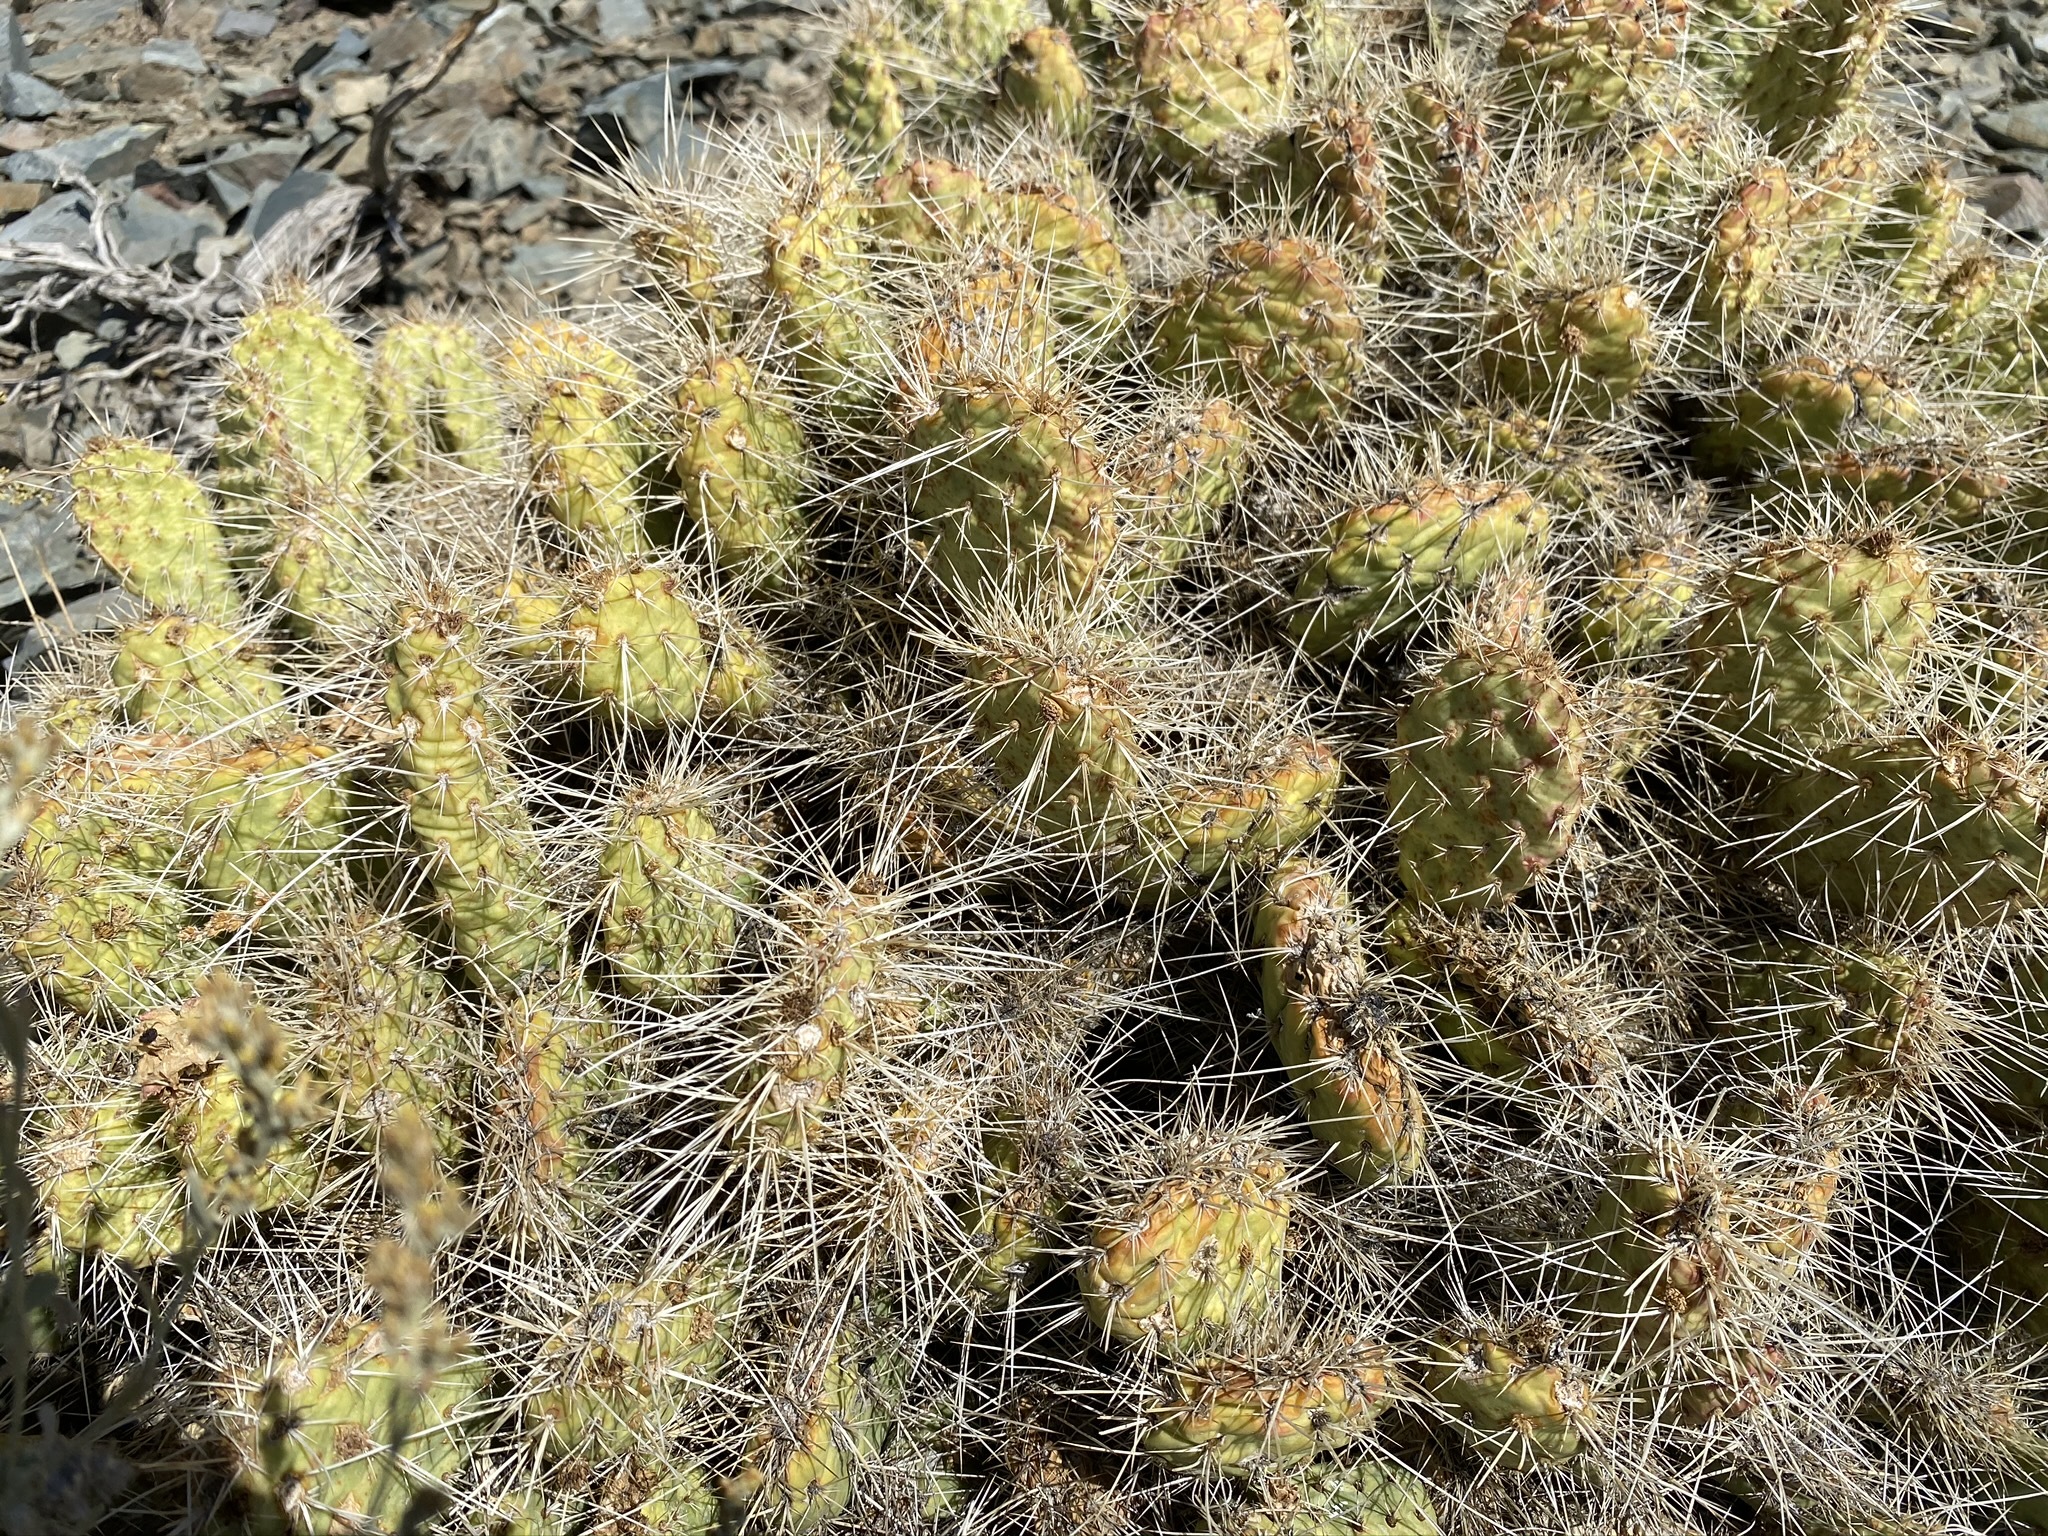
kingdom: Plantae
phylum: Tracheophyta
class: Magnoliopsida
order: Caryophyllales
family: Cactaceae
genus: Opuntia
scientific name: Opuntia polyacantha
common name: Plains prickly-pear
